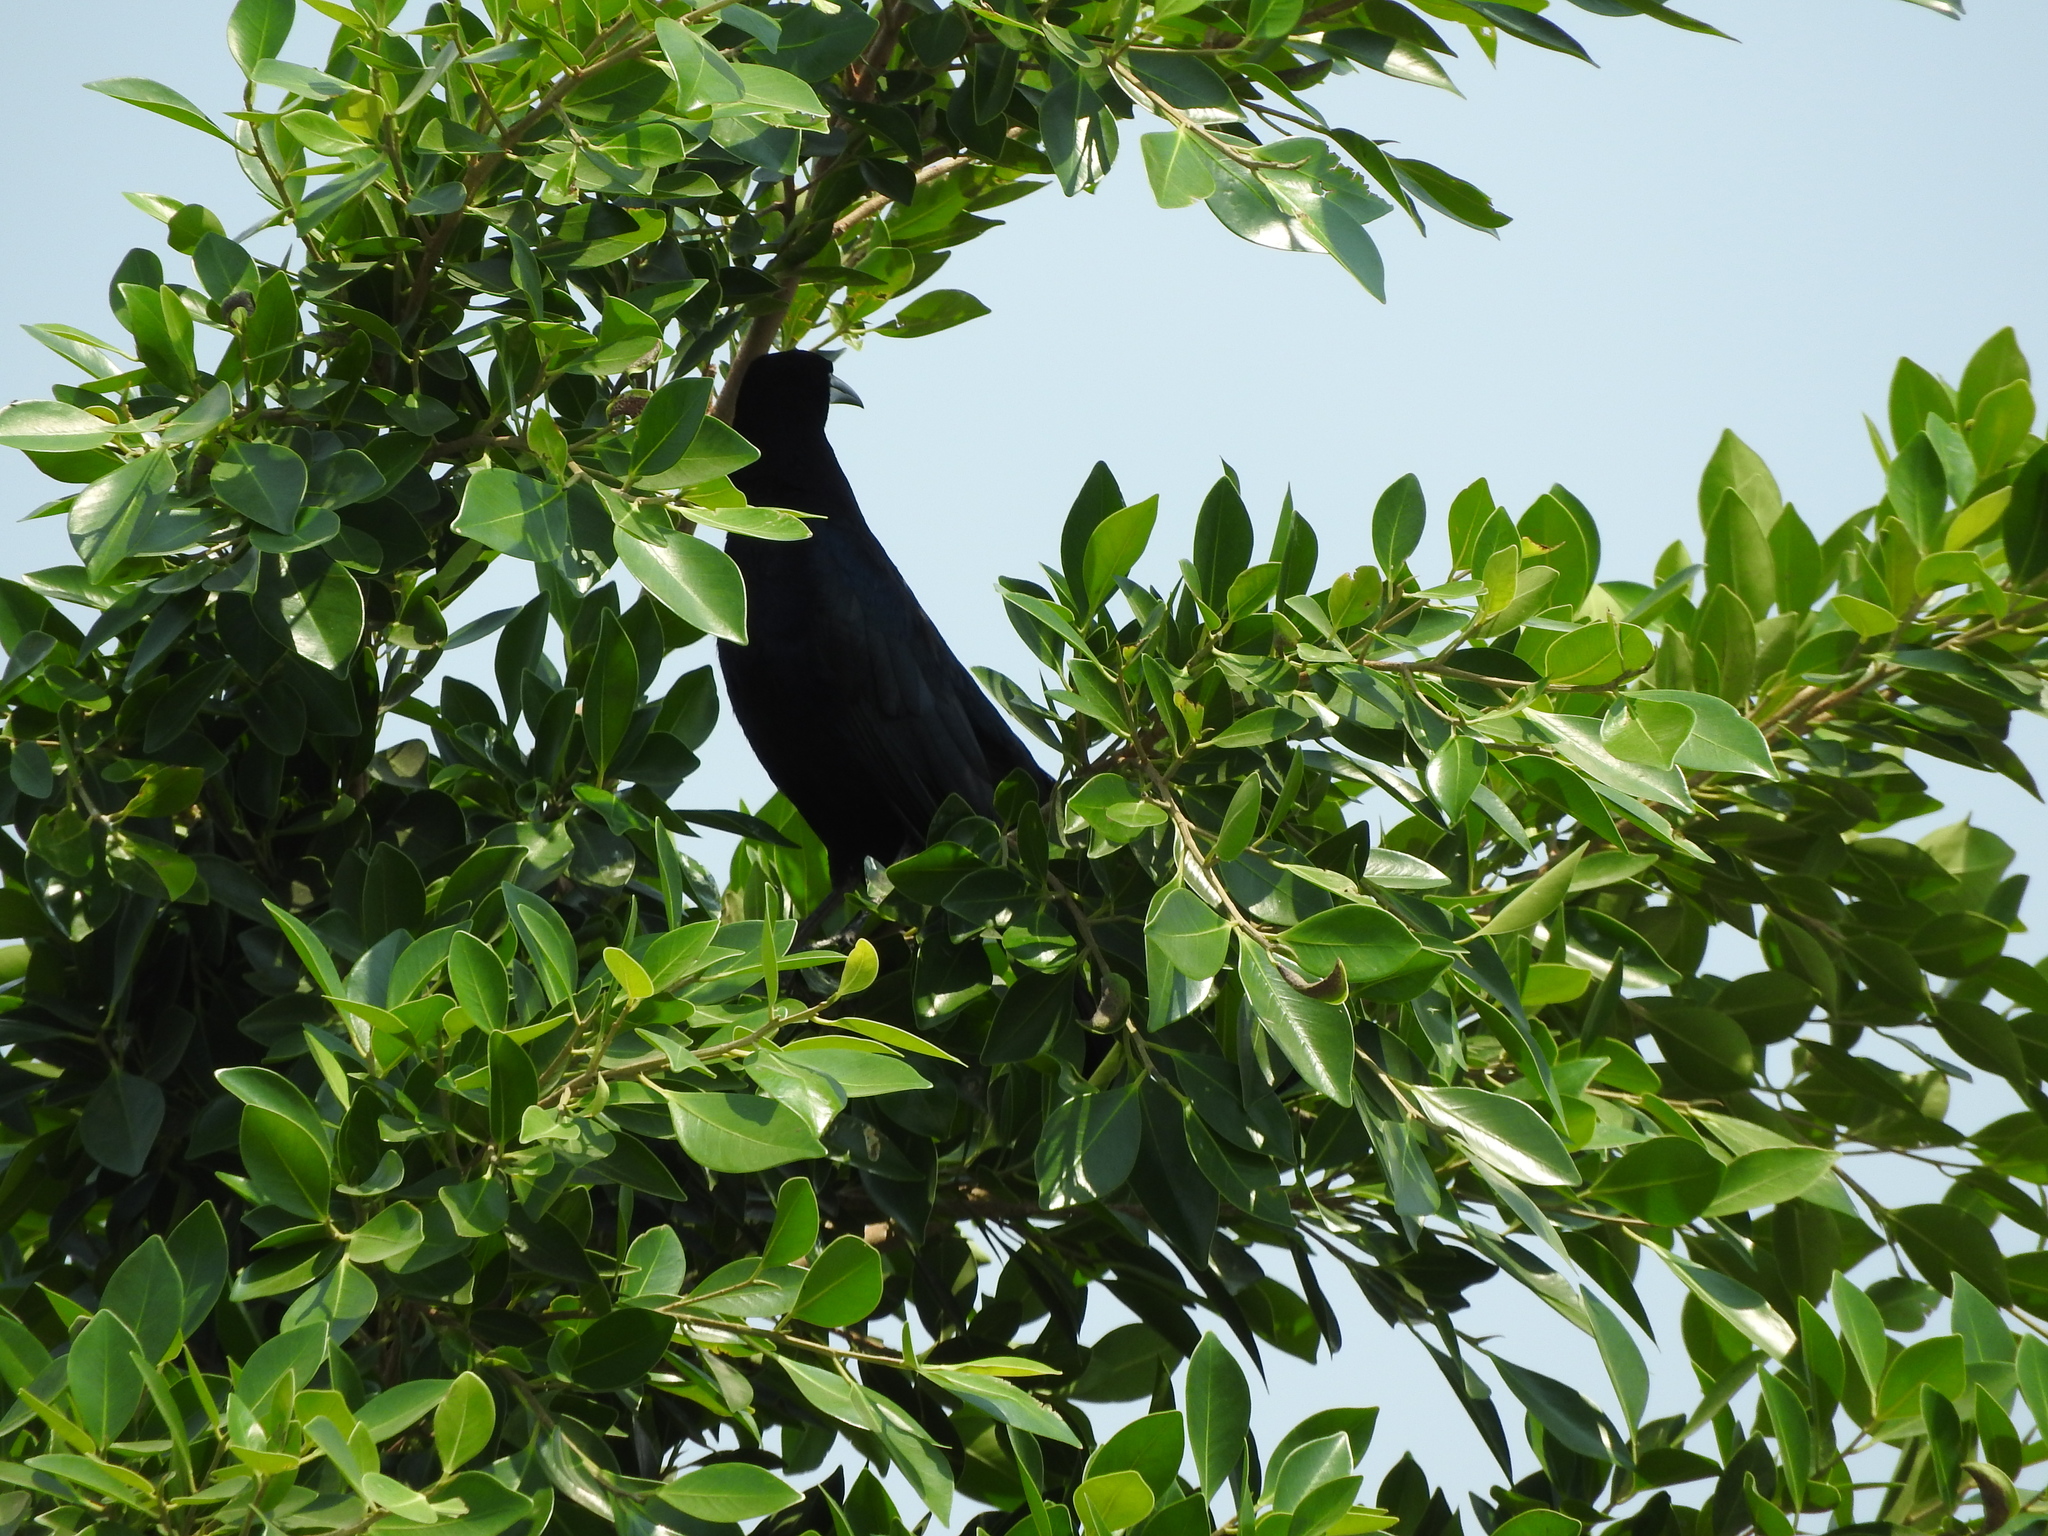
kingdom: Animalia
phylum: Chordata
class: Aves
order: Passeriformes
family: Icteridae
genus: Quiscalus
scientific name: Quiscalus mexicanus
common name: Great-tailed grackle
